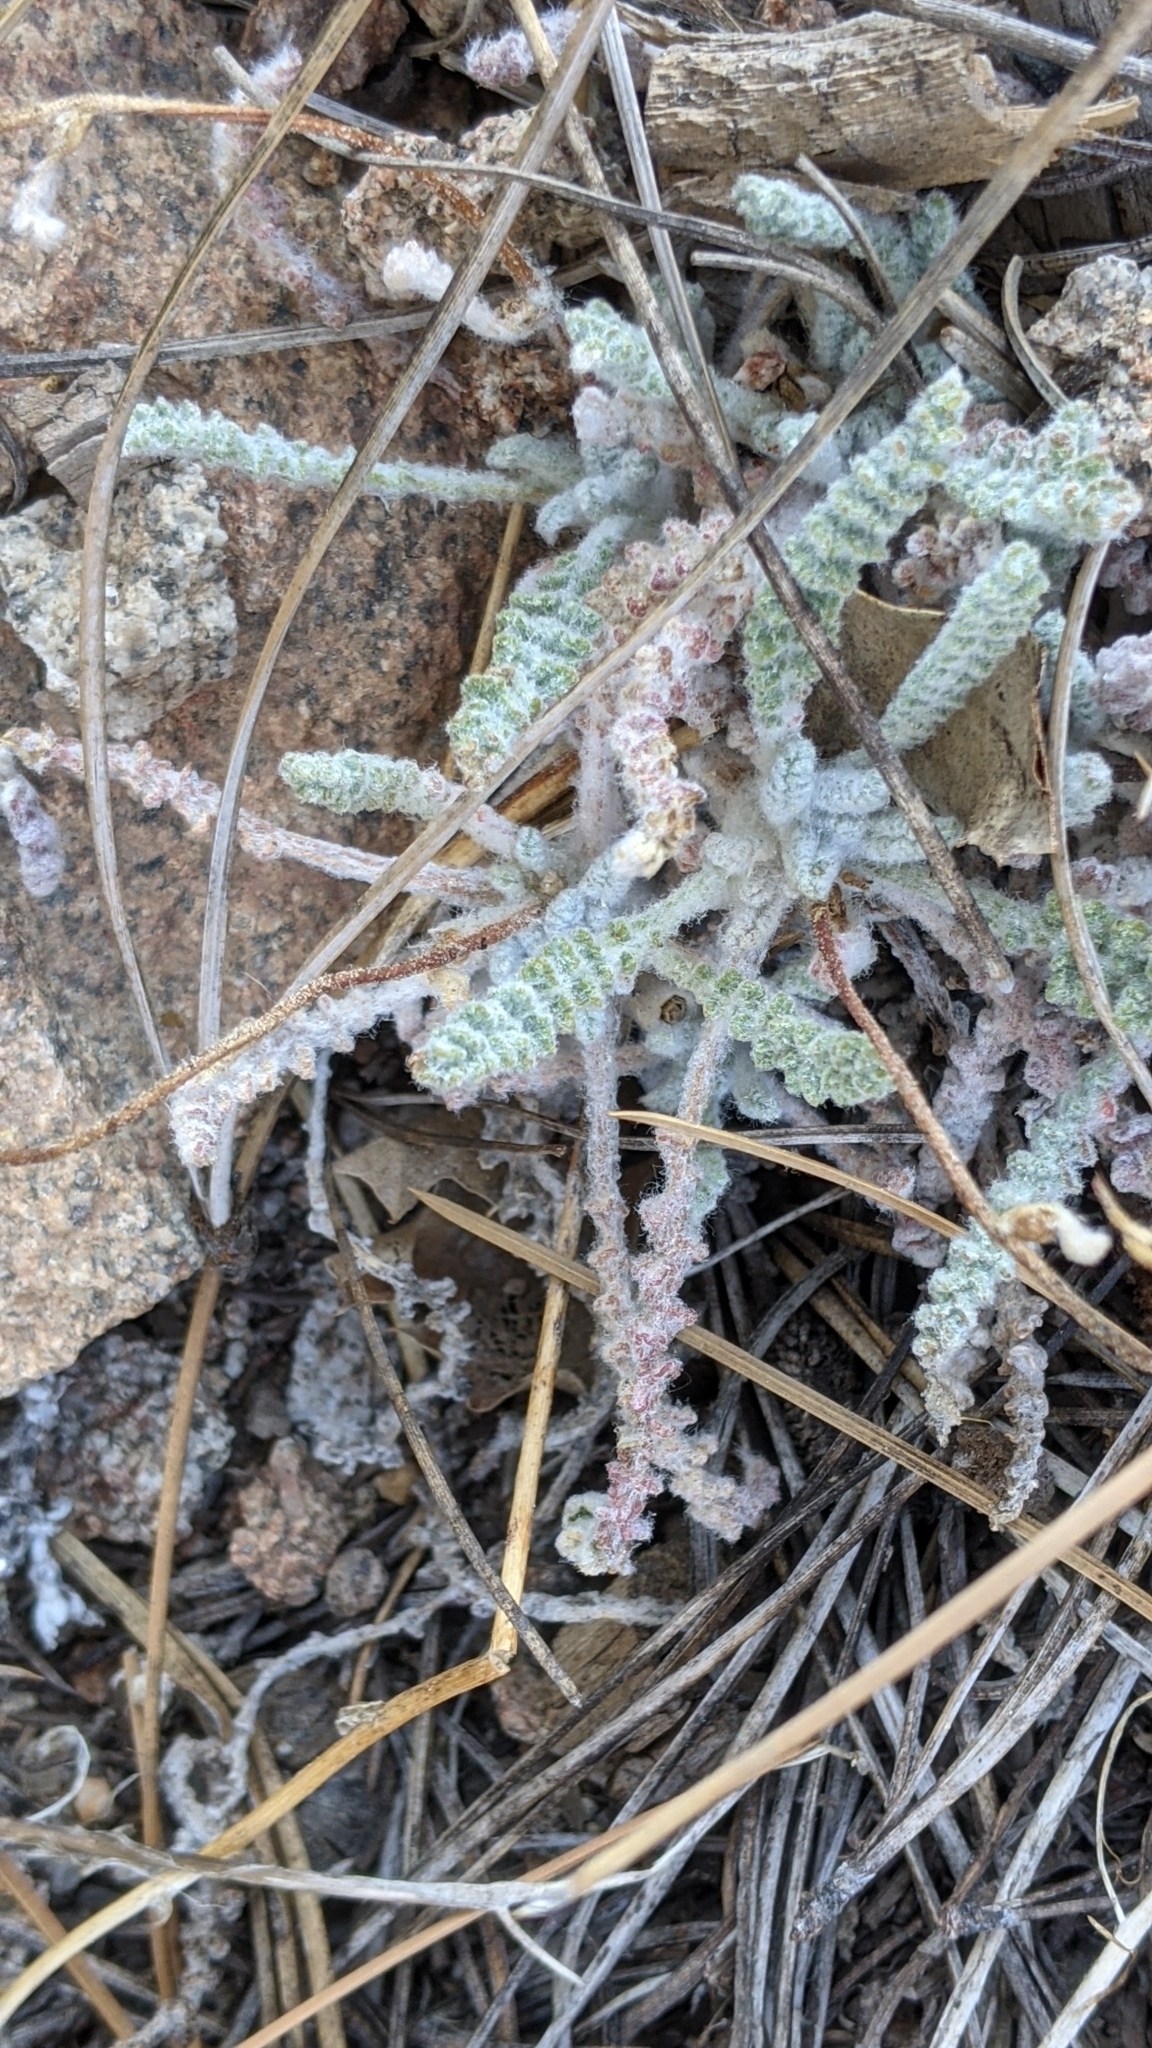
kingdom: Plantae
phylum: Tracheophyta
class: Magnoliopsida
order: Asterales
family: Asteraceae
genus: Chaenactis
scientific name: Chaenactis santolinoides
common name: Santolina pincushion
